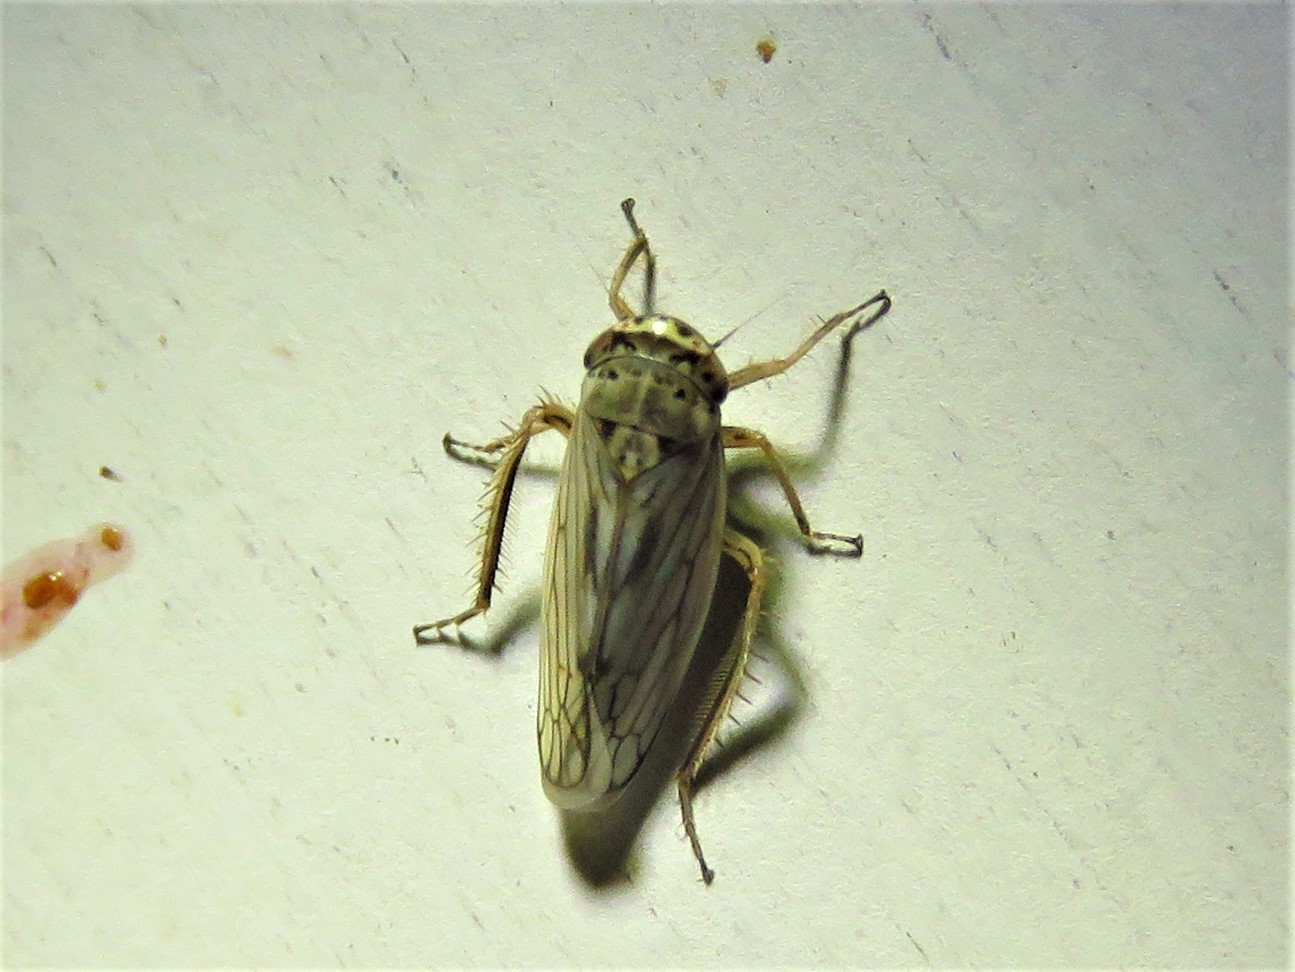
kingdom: Animalia
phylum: Arthropoda
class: Insecta
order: Hemiptera
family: Cicadellidae
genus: Exitianus
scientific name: Exitianus exitiosus
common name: Gray lawn leafhopper
